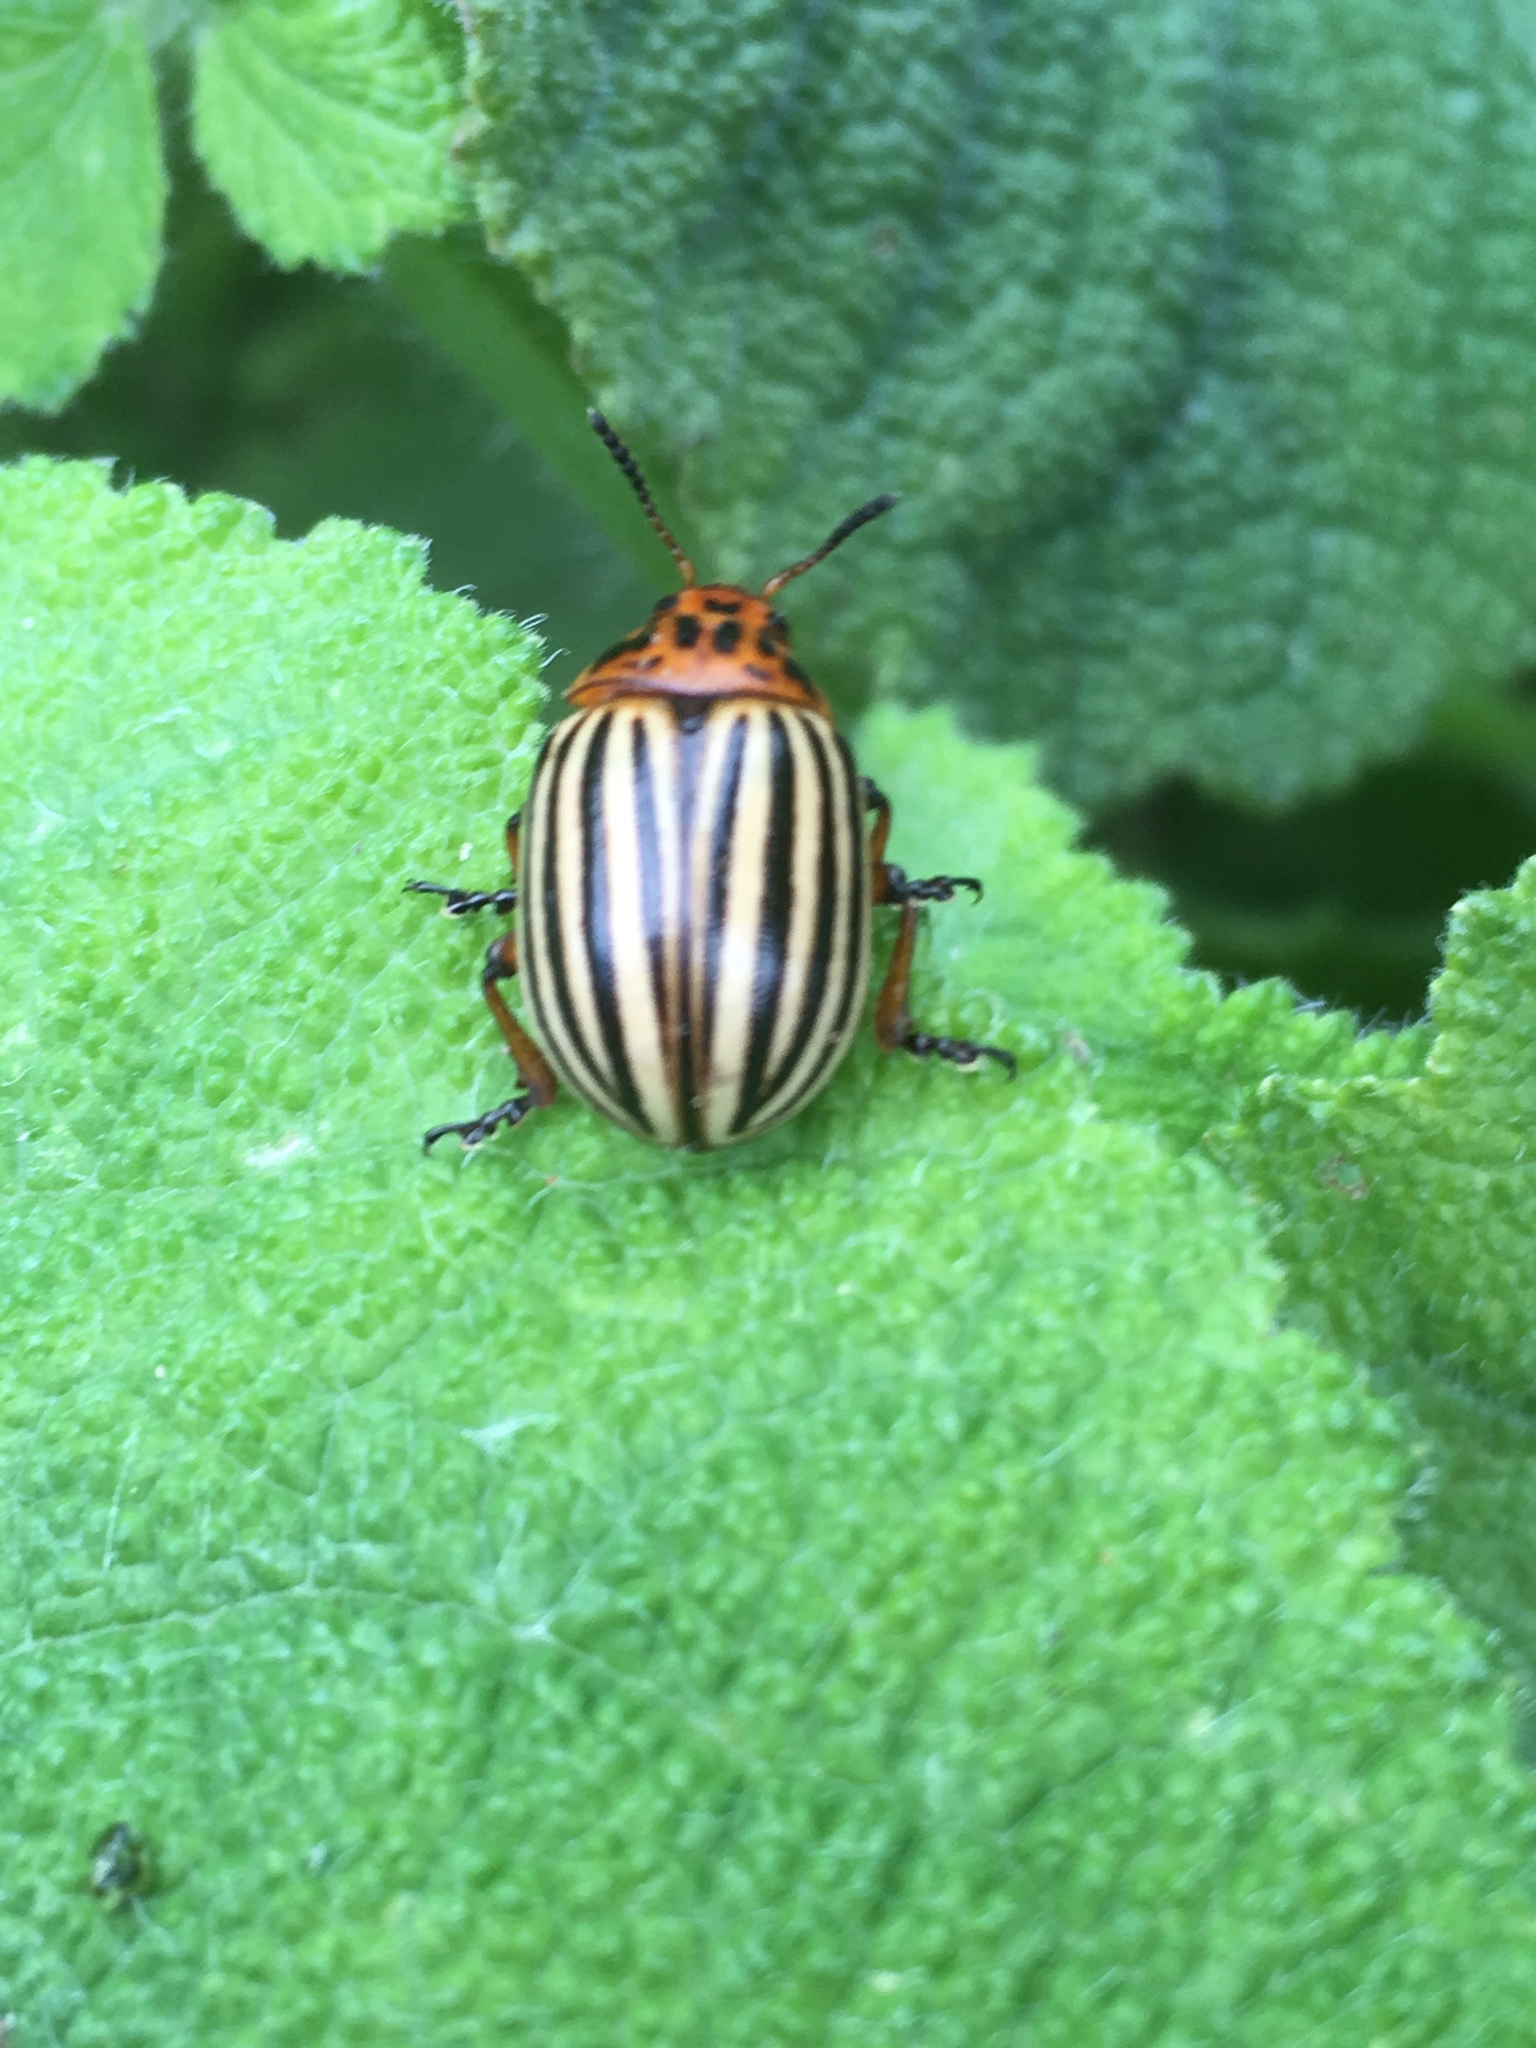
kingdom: Animalia
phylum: Arthropoda
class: Insecta
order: Coleoptera
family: Chrysomelidae
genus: Leptinotarsa
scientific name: Leptinotarsa decemlineata
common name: Colorado potato beetle
